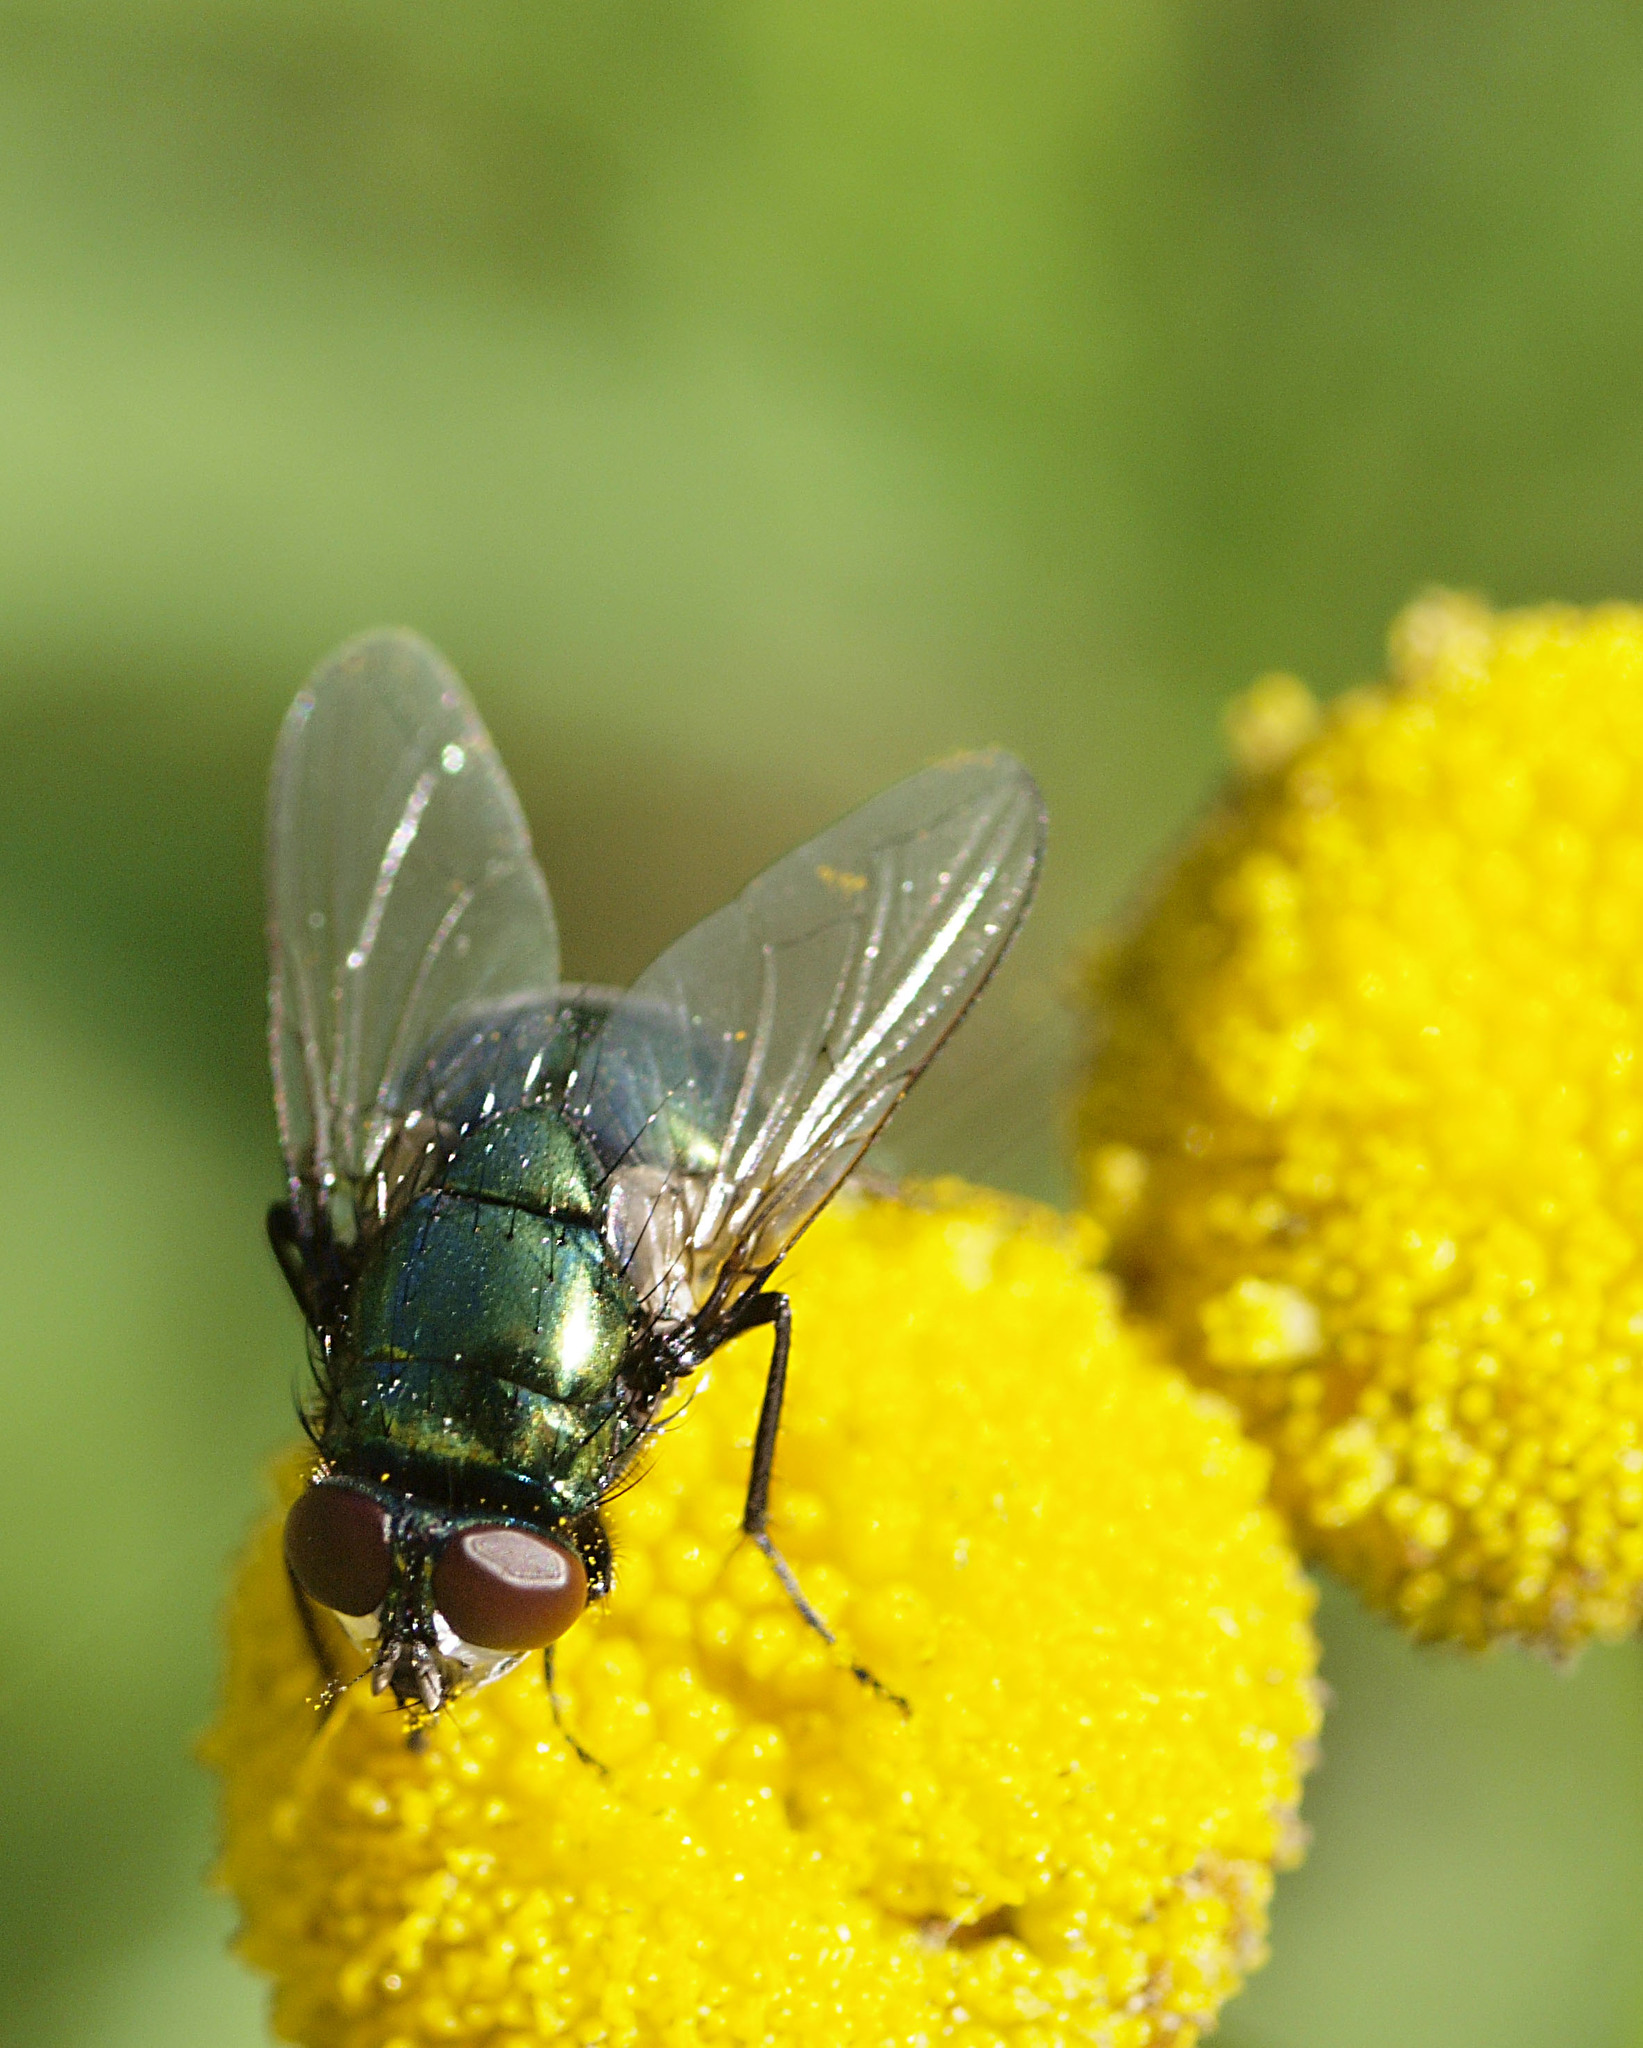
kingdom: Animalia
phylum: Arthropoda
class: Insecta
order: Diptera
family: Muscidae
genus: Neomyia
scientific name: Neomyia cornicina
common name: House fly
